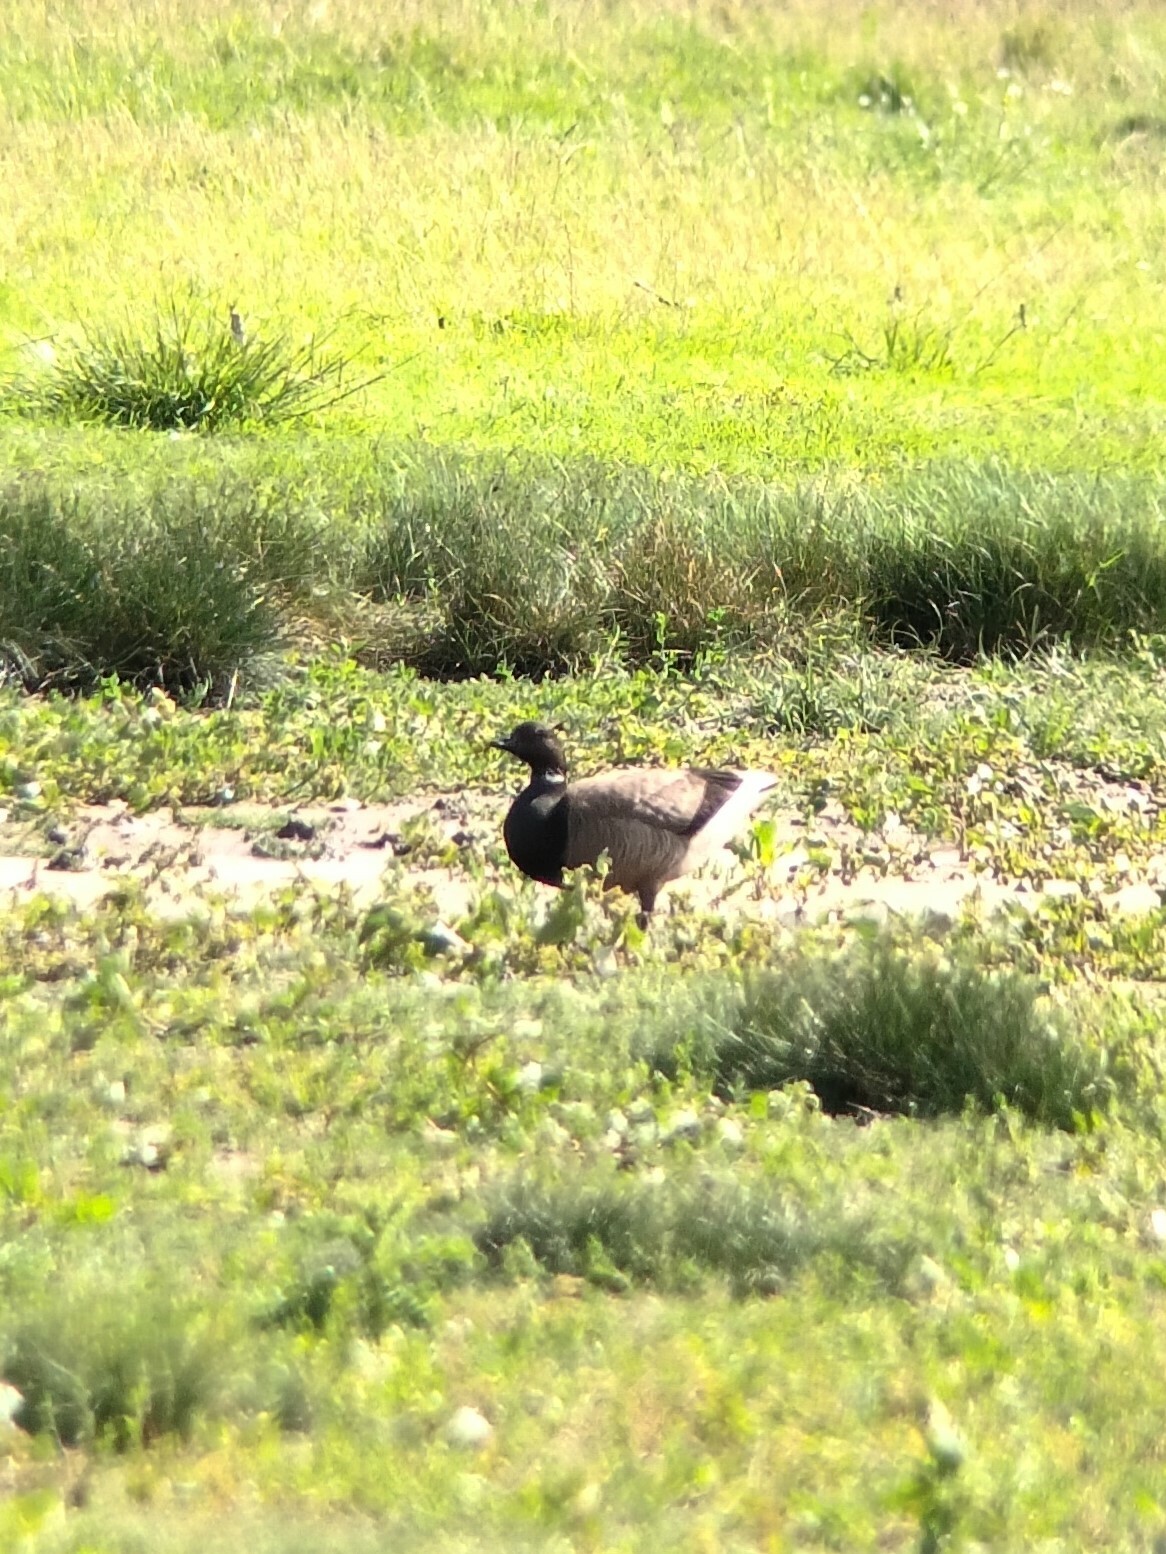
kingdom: Animalia
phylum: Chordata
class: Aves
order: Anseriformes
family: Anatidae
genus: Branta
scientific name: Branta bernicla
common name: Brant goose
